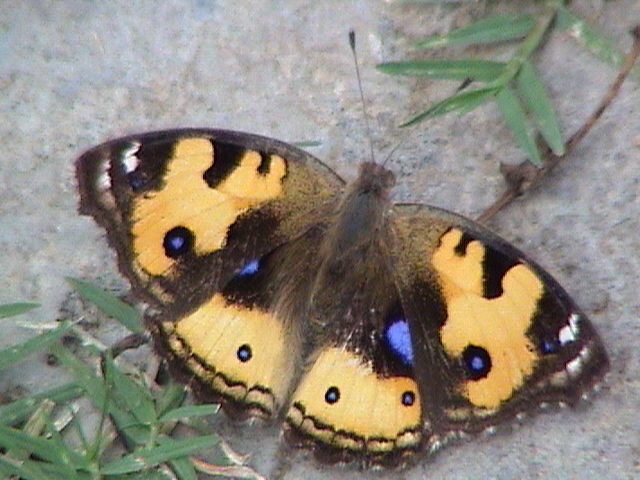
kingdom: Animalia
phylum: Arthropoda
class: Insecta
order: Lepidoptera
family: Nymphalidae
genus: Junonia
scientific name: Junonia hierta
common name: Yellow pansy
